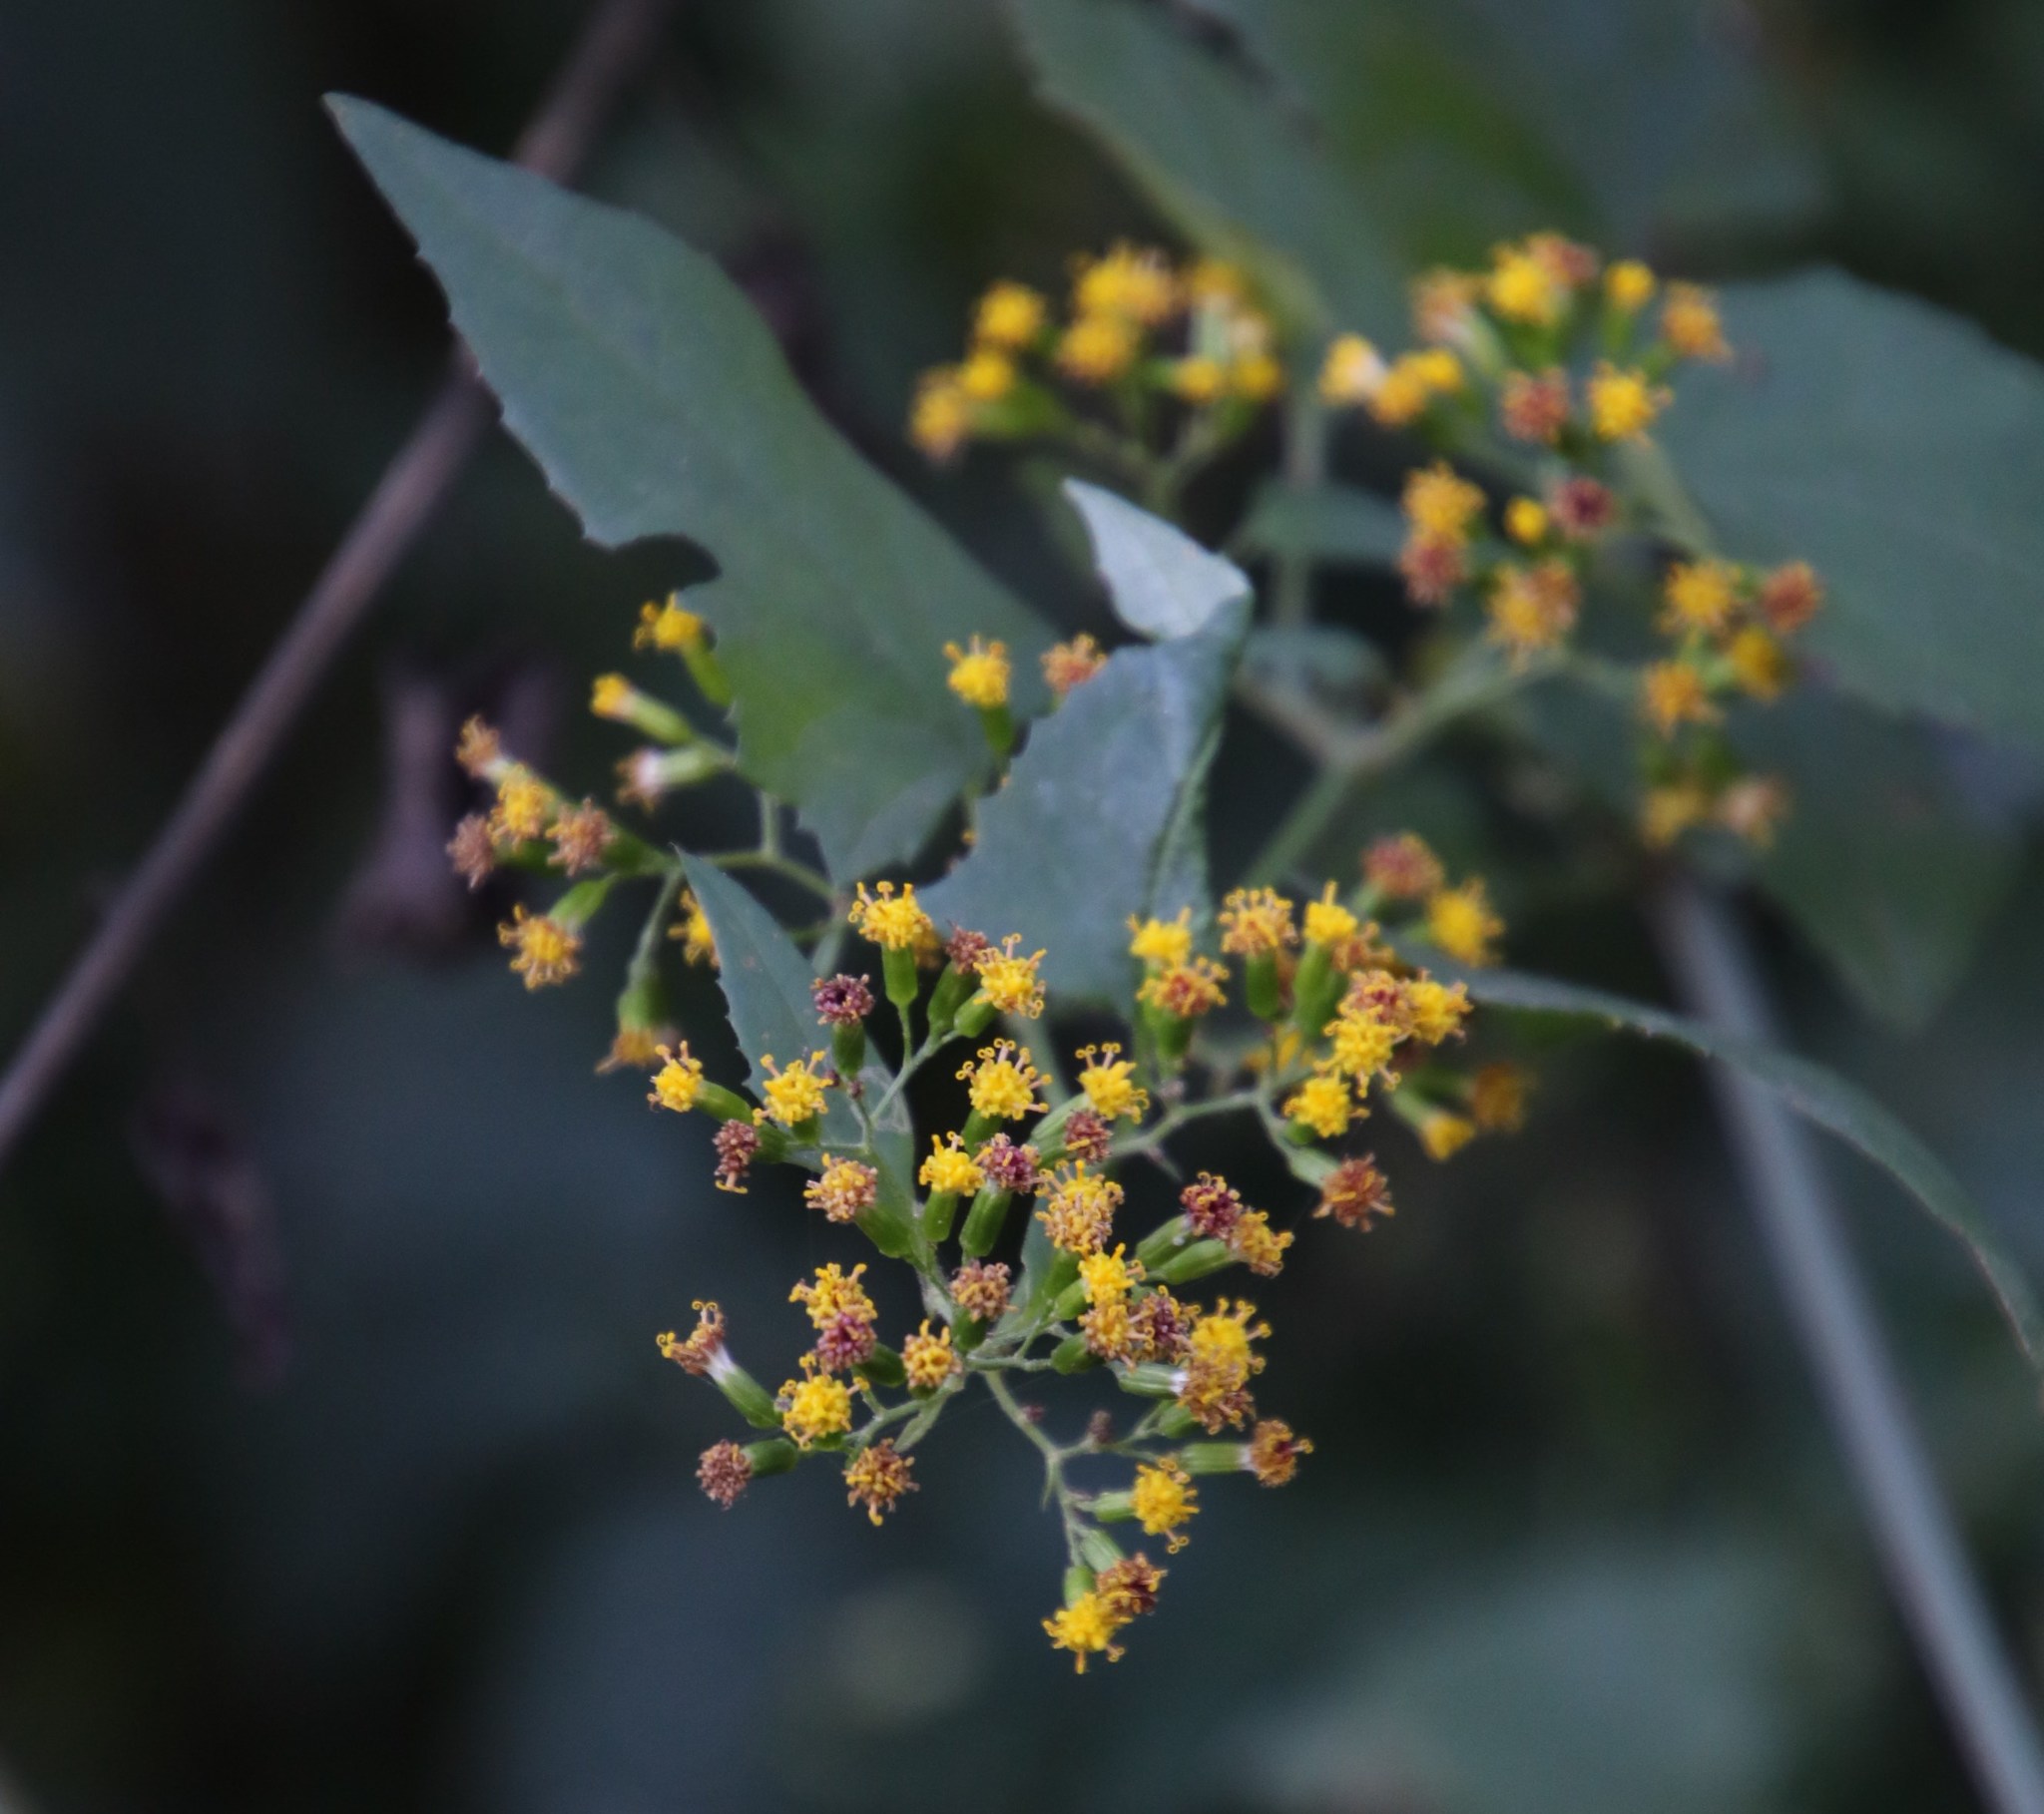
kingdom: Plantae
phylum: Tracheophyta
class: Magnoliopsida
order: Asterales
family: Asteraceae
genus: Senecio
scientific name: Senecio deltoideus
